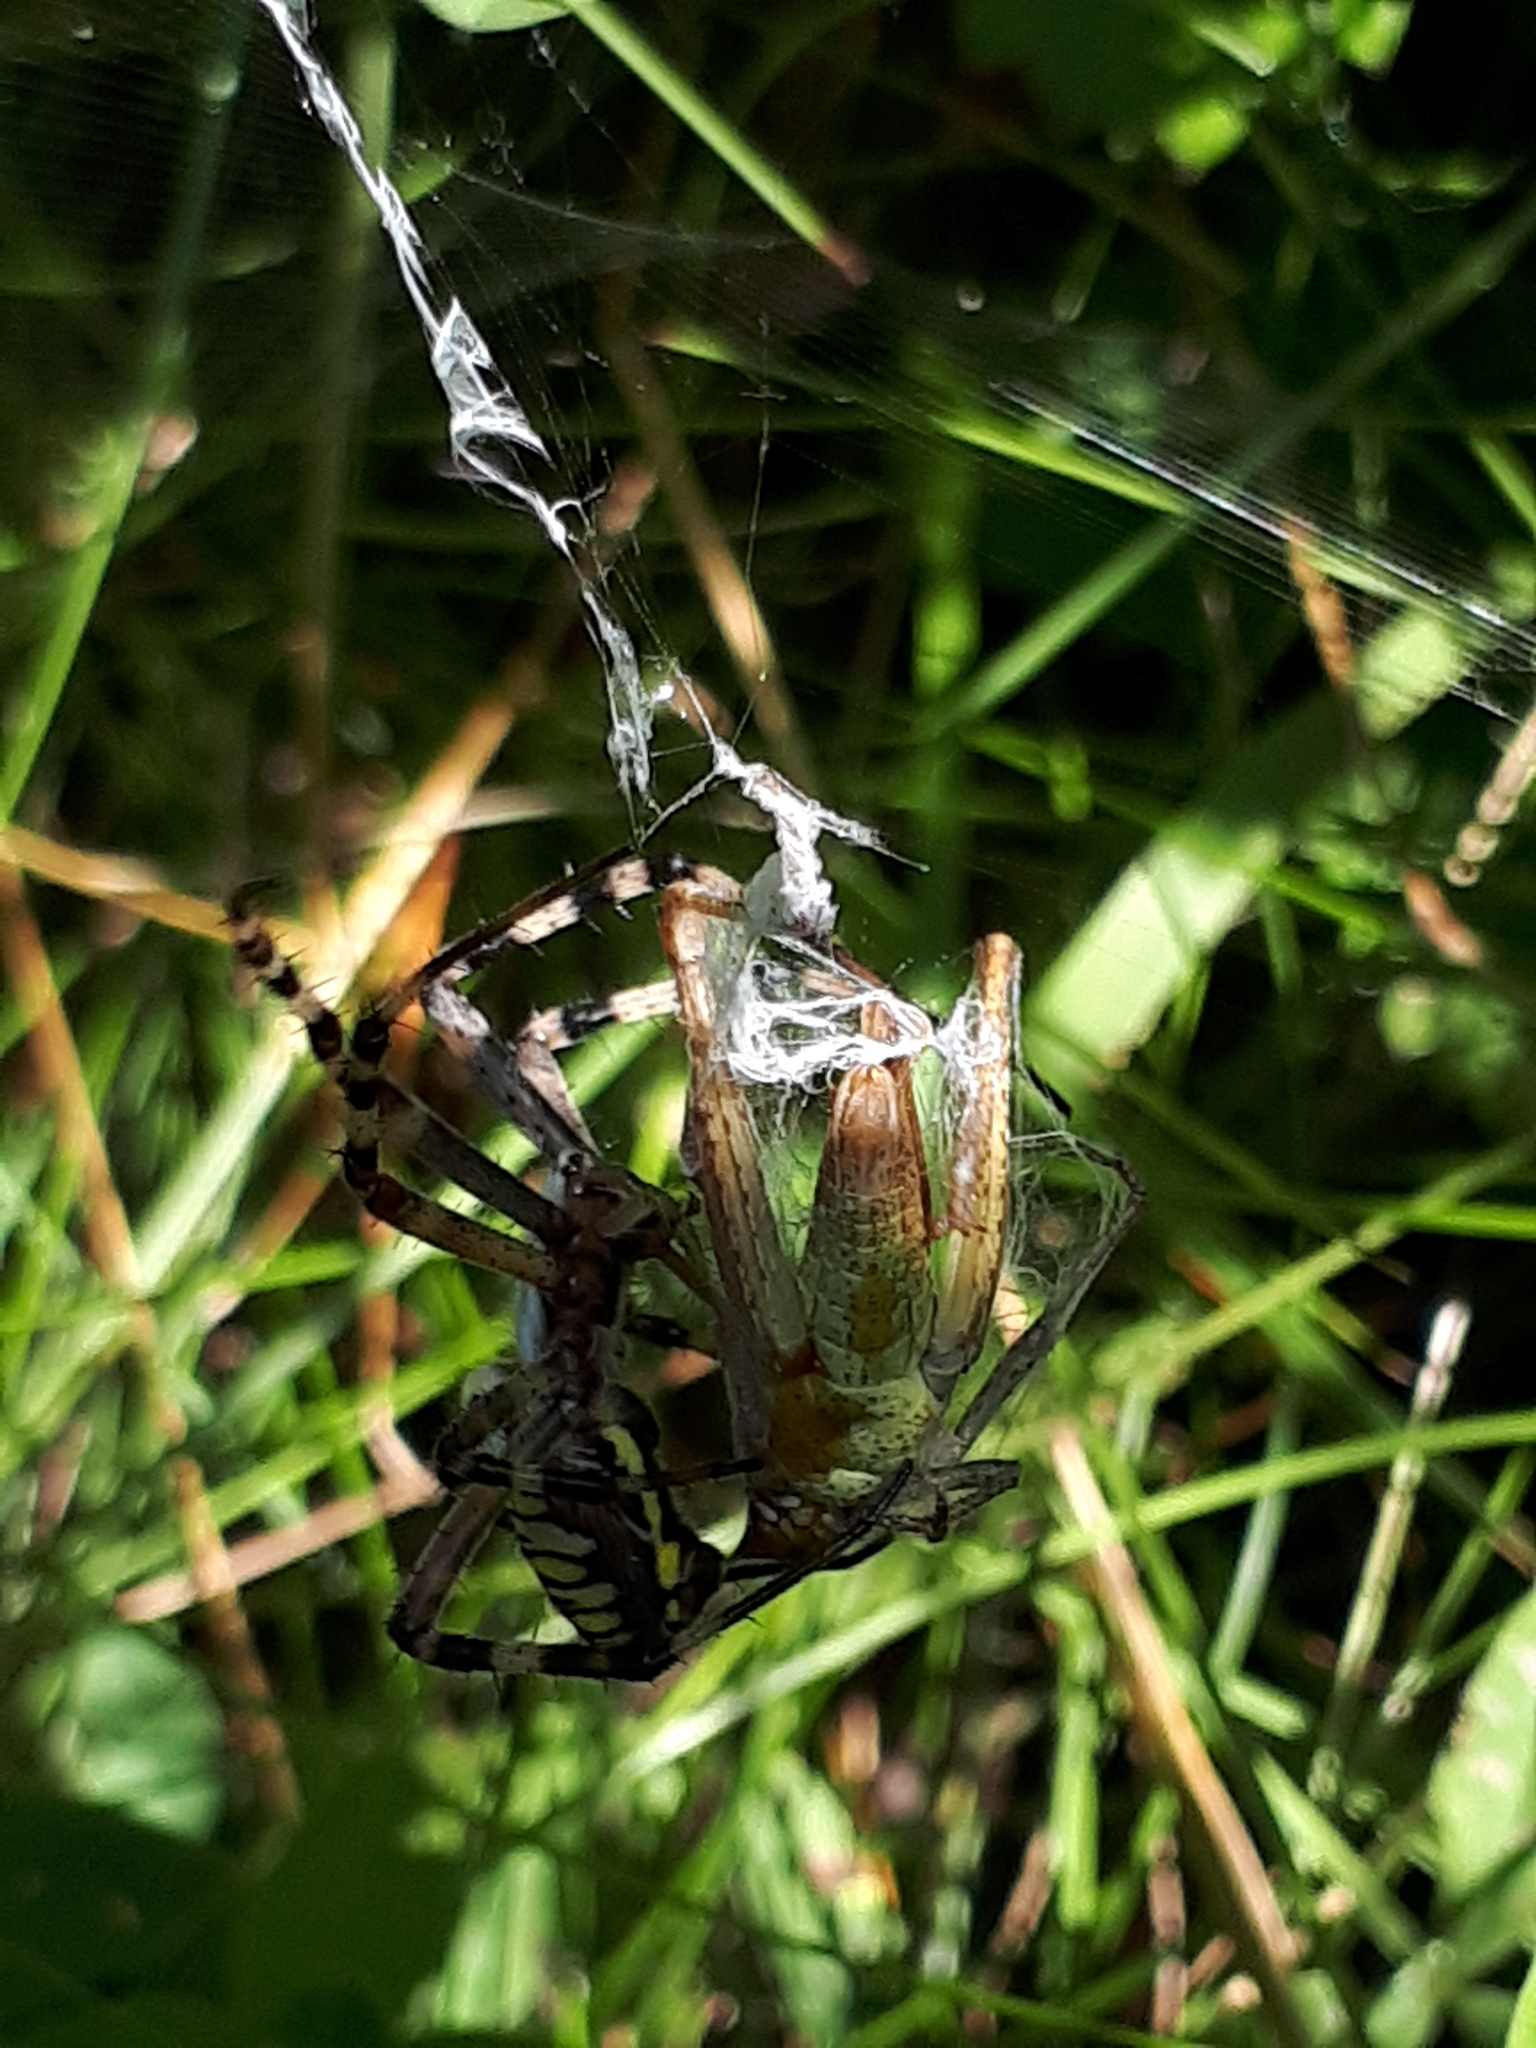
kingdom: Animalia
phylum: Arthropoda
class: Arachnida
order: Araneae
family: Araneidae
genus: Argiope
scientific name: Argiope bruennichi
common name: Wasp spider
